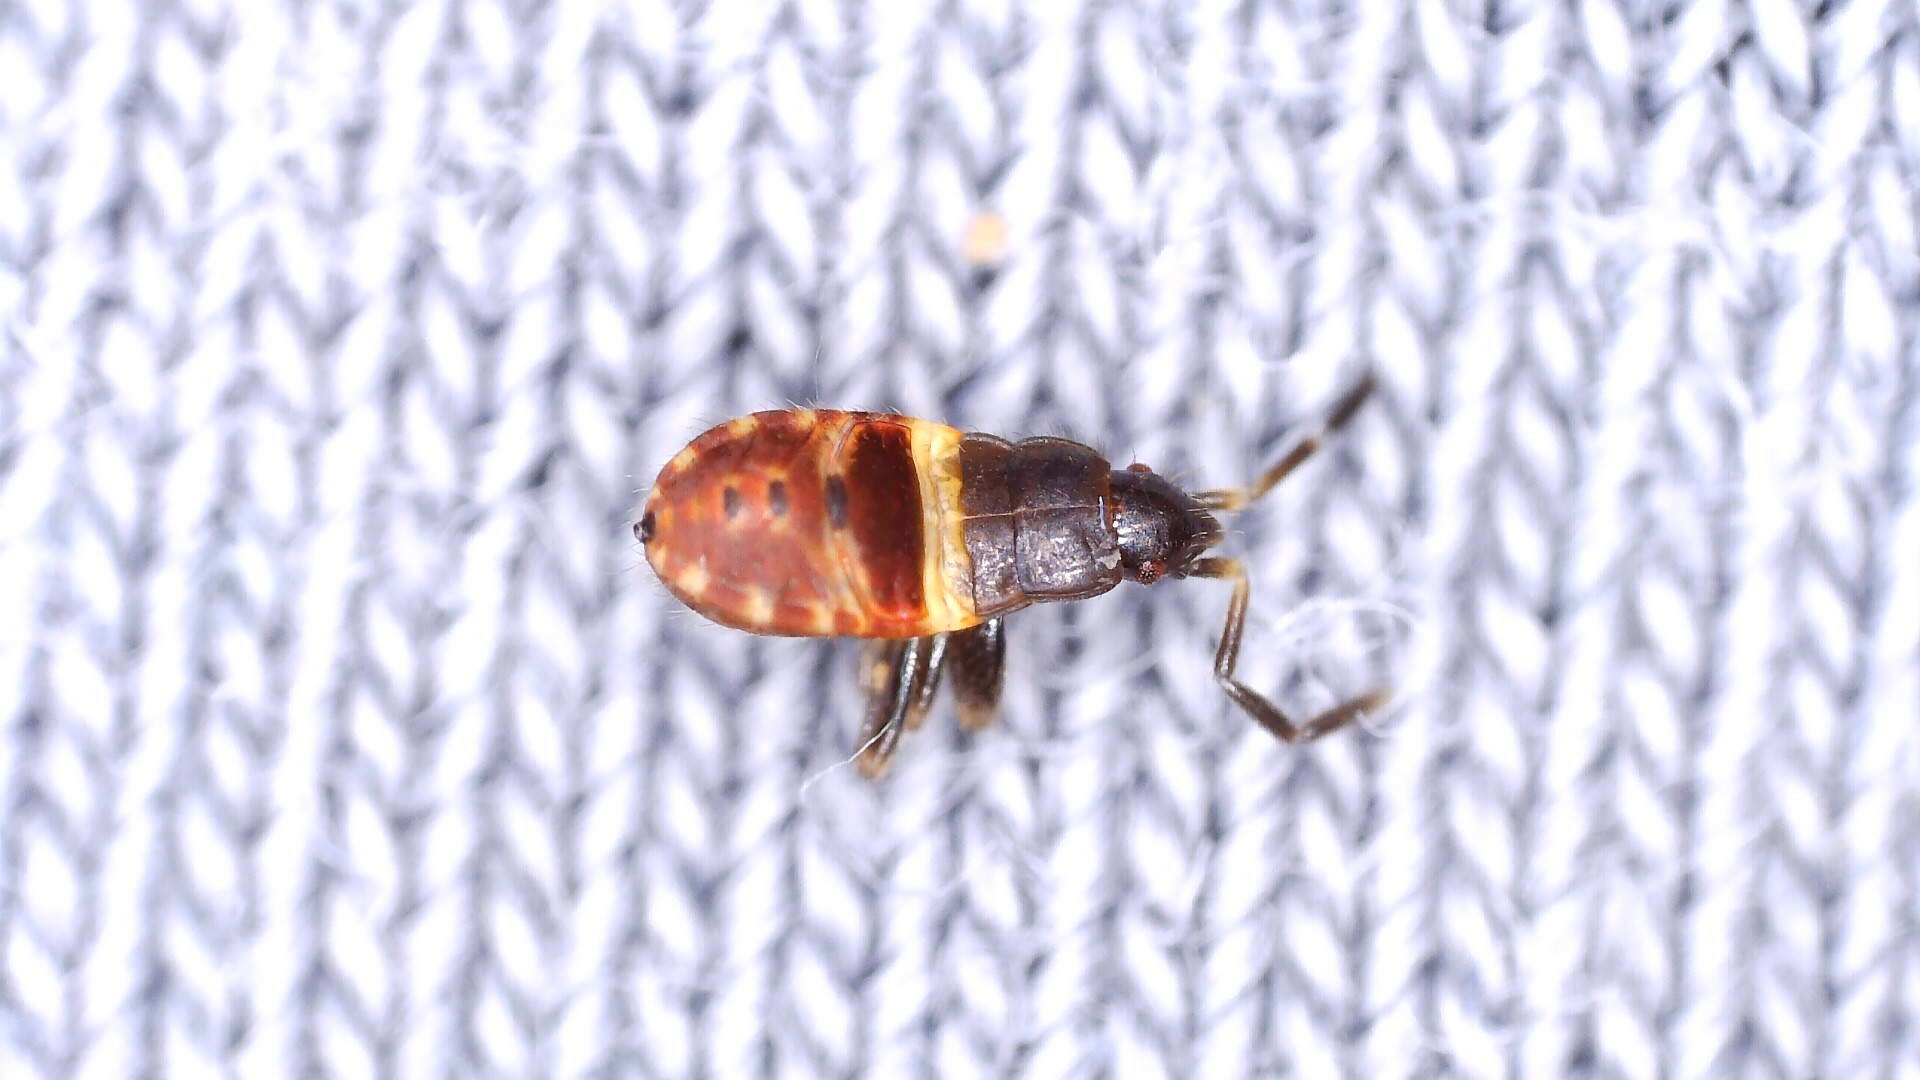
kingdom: Animalia
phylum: Arthropoda
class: Insecta
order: Hemiptera
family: Rhyparochromidae
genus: Eremocoris
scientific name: Eremocoris plebejus
